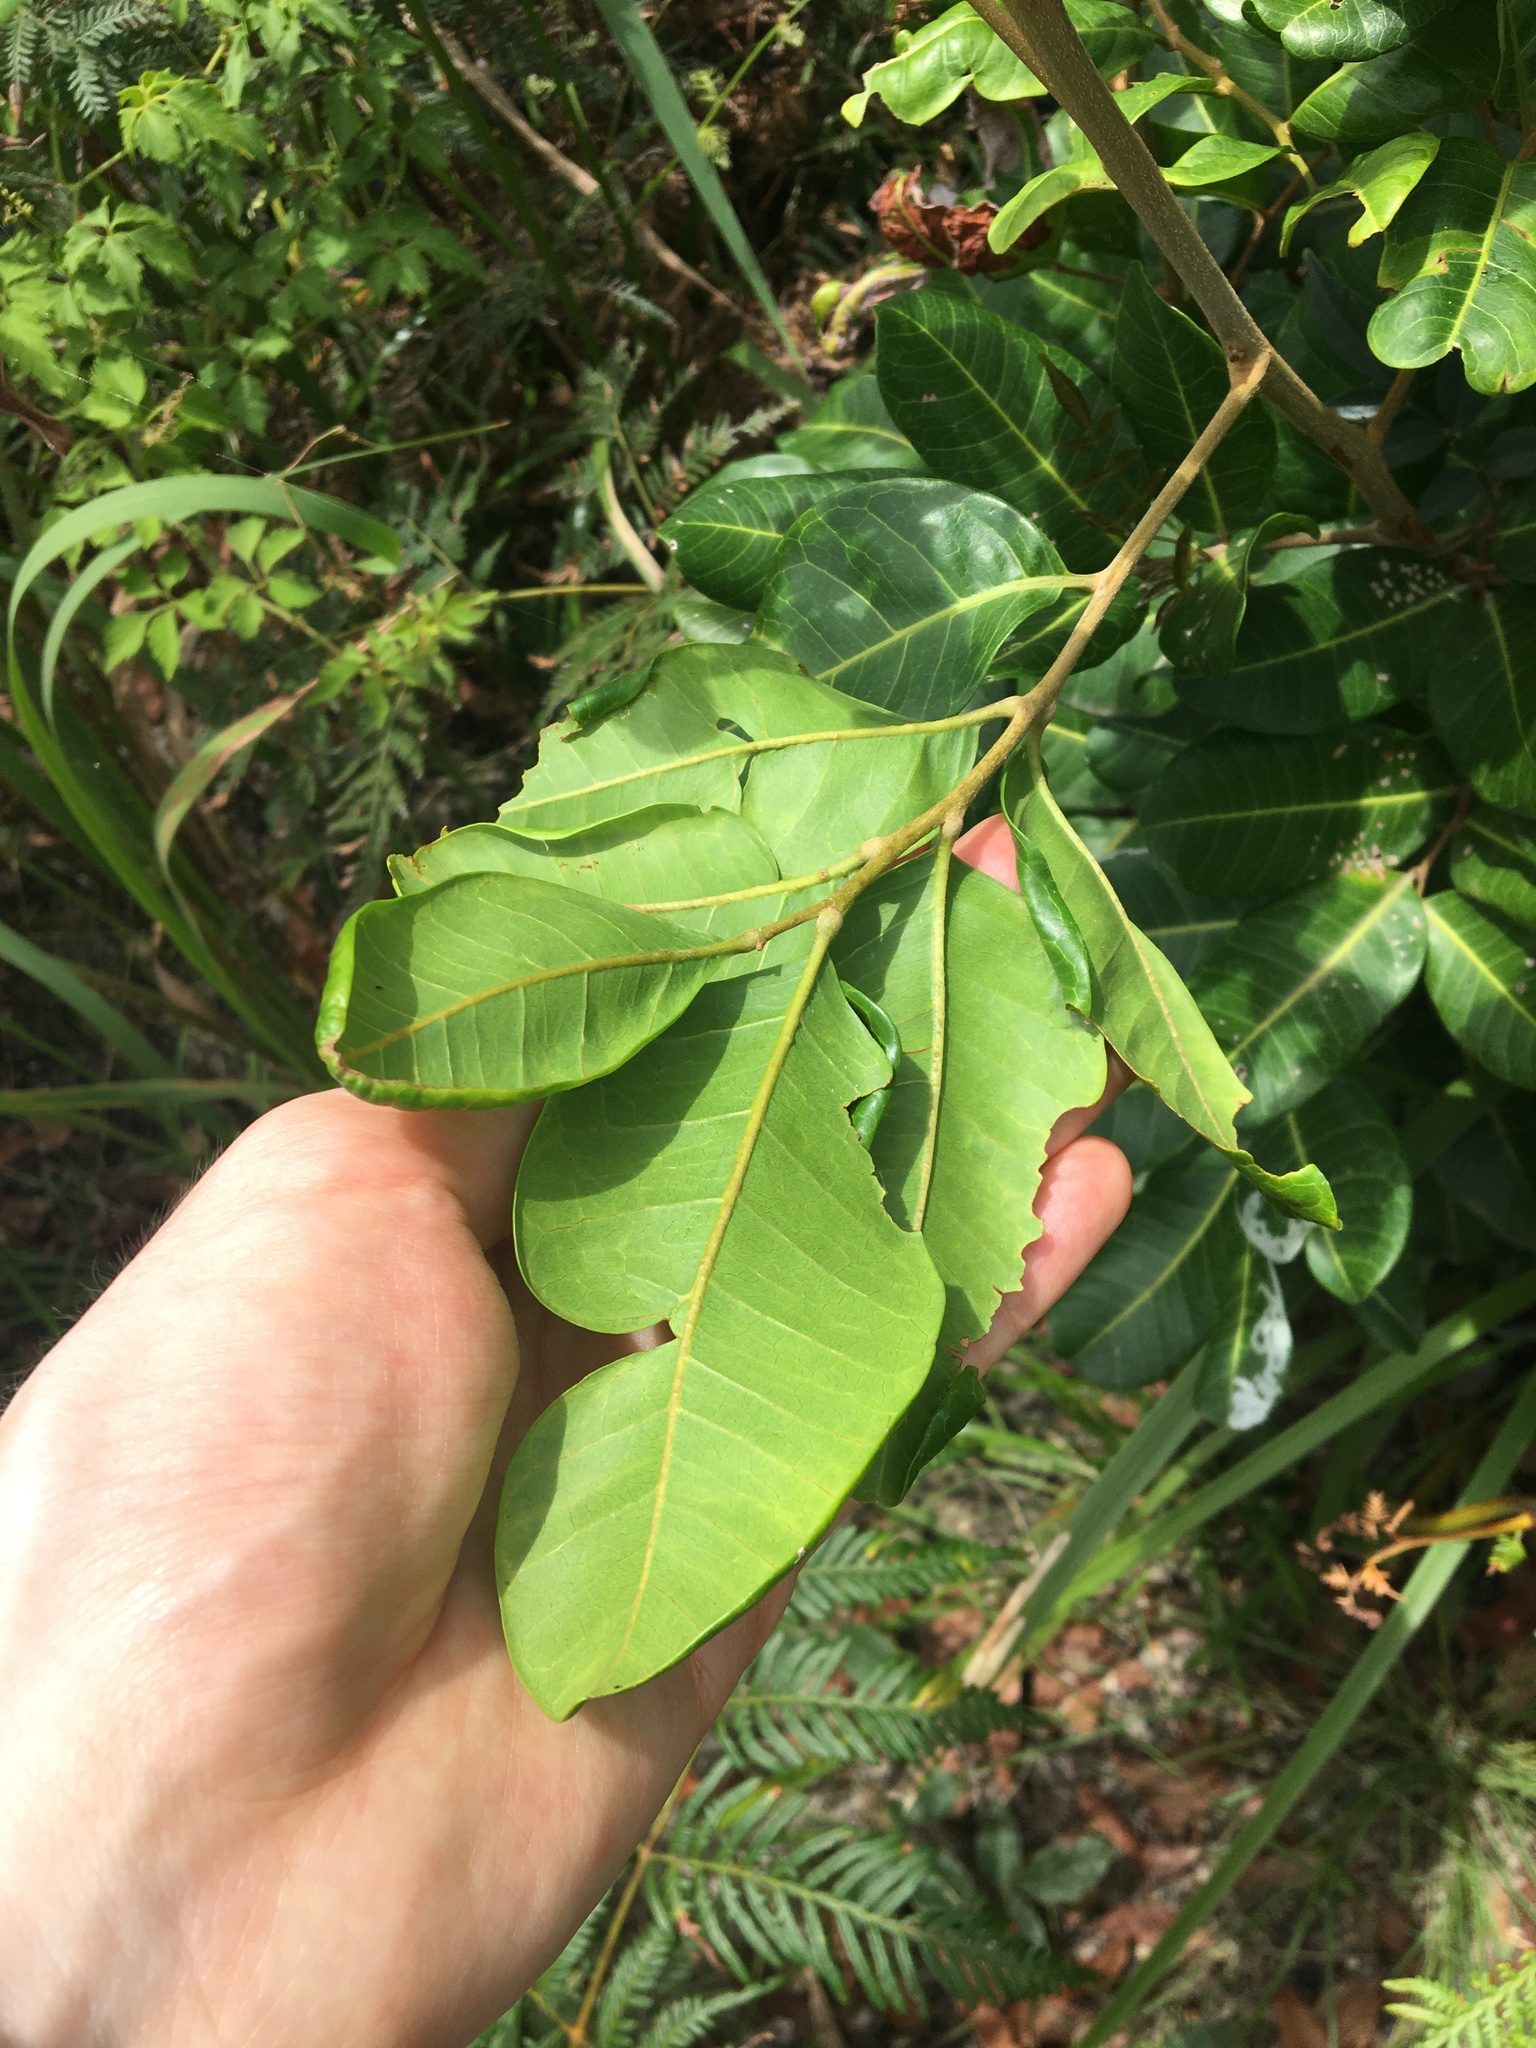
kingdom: Plantae
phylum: Tracheophyta
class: Magnoliopsida
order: Sapindales
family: Sapindaceae
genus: Cupaniopsis
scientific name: Cupaniopsis anacardioides
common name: Carrotwood
